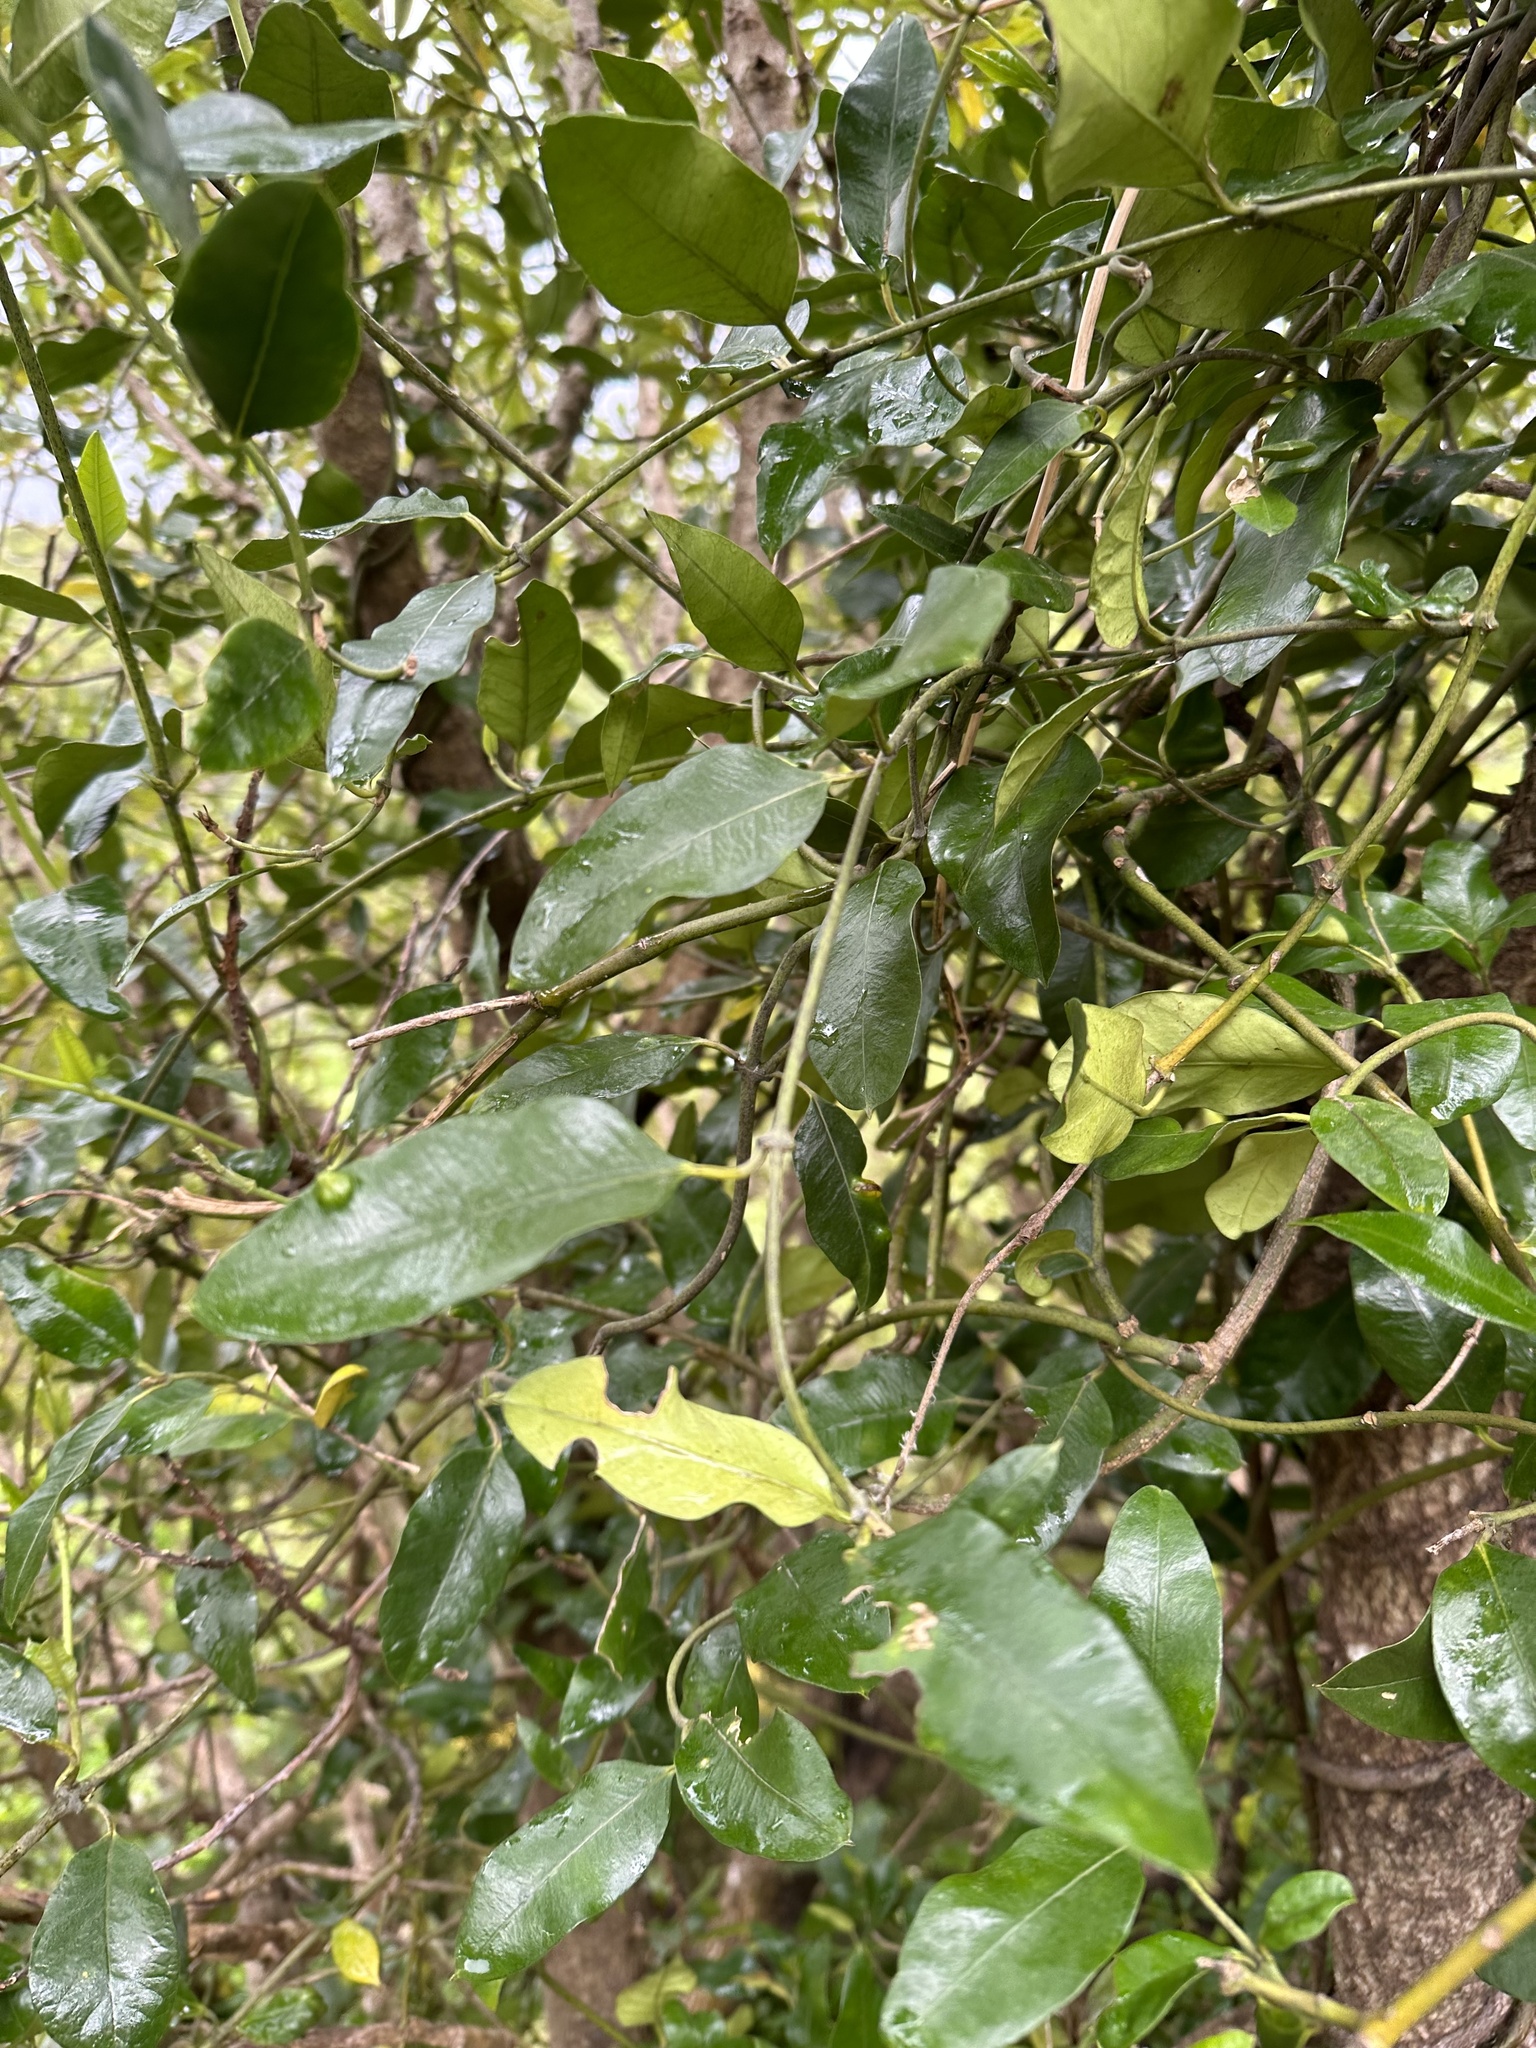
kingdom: Plantae
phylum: Tracheophyta
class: Magnoliopsida
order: Malpighiales
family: Passifloraceae
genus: Passiflora
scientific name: Passiflora tetrandra
